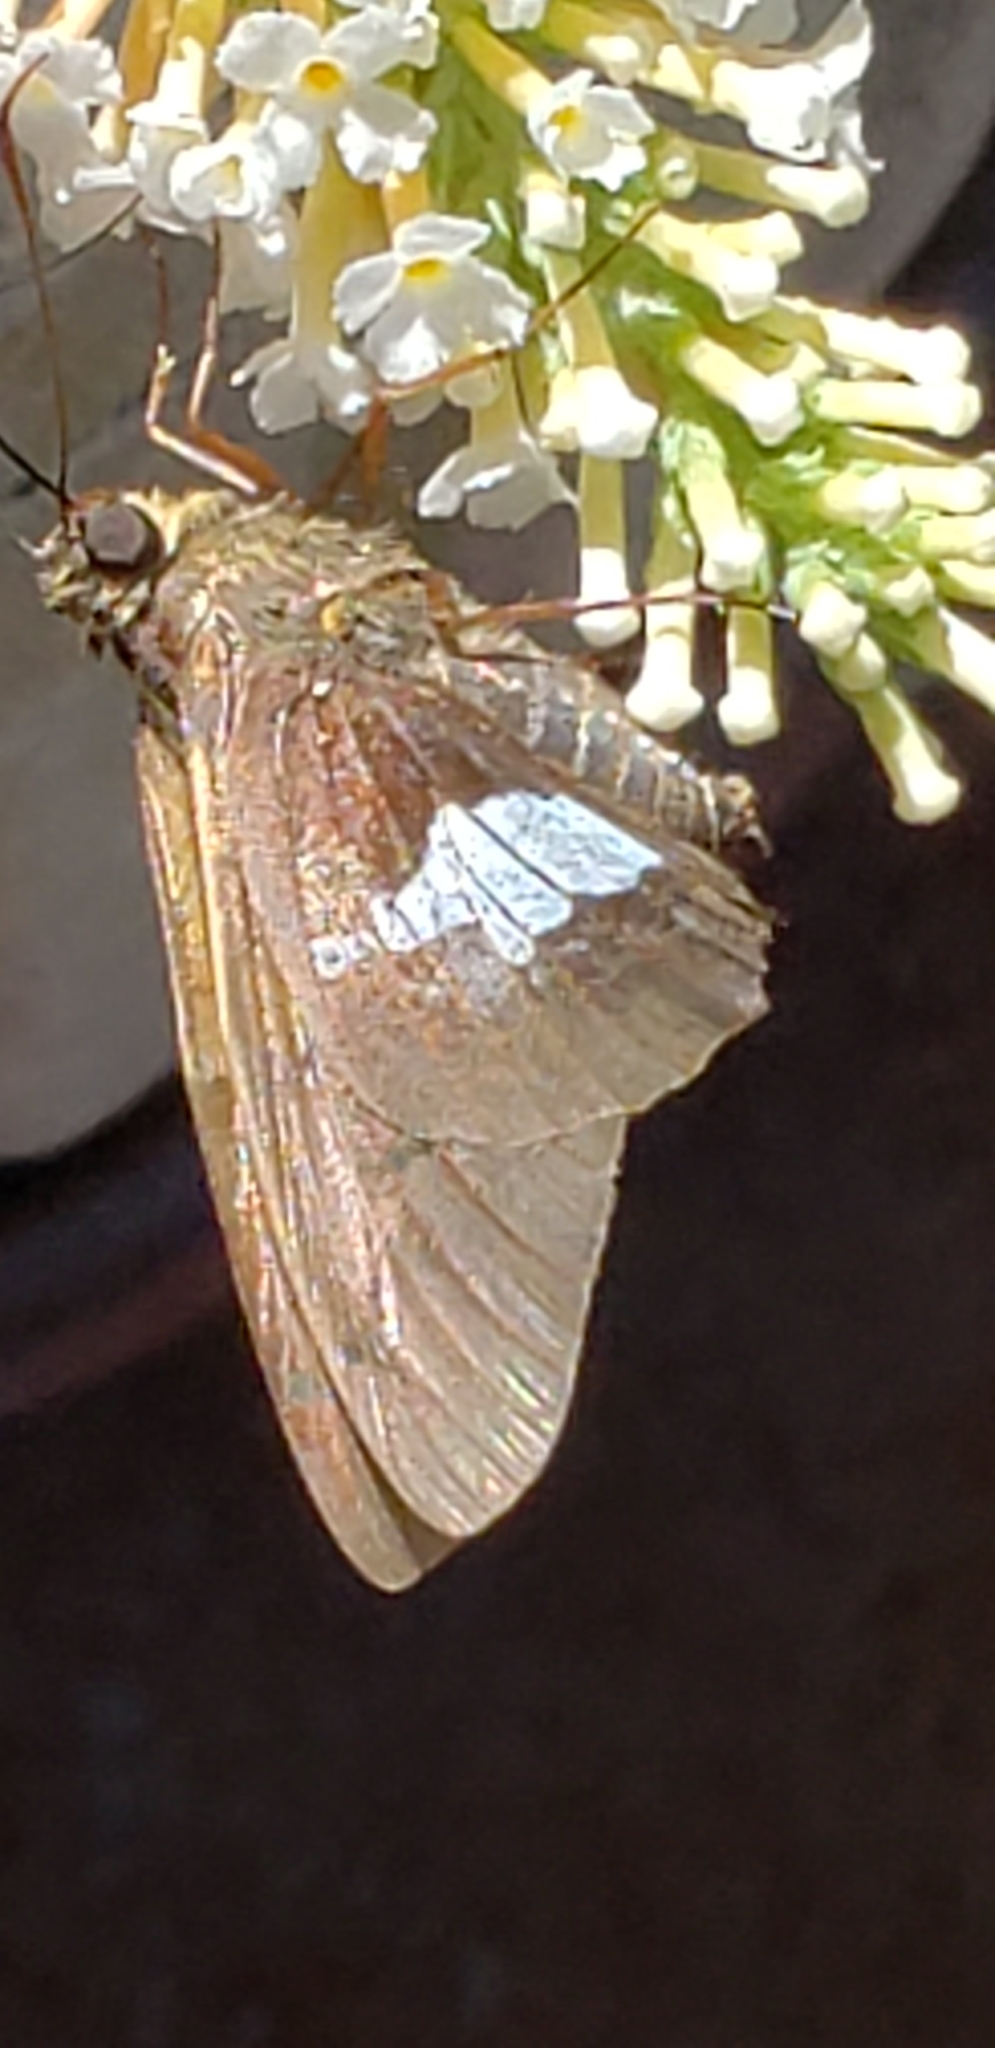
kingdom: Animalia
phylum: Arthropoda
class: Insecta
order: Lepidoptera
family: Hesperiidae
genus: Epargyreus
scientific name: Epargyreus clarus
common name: Silver-spotted skipper
